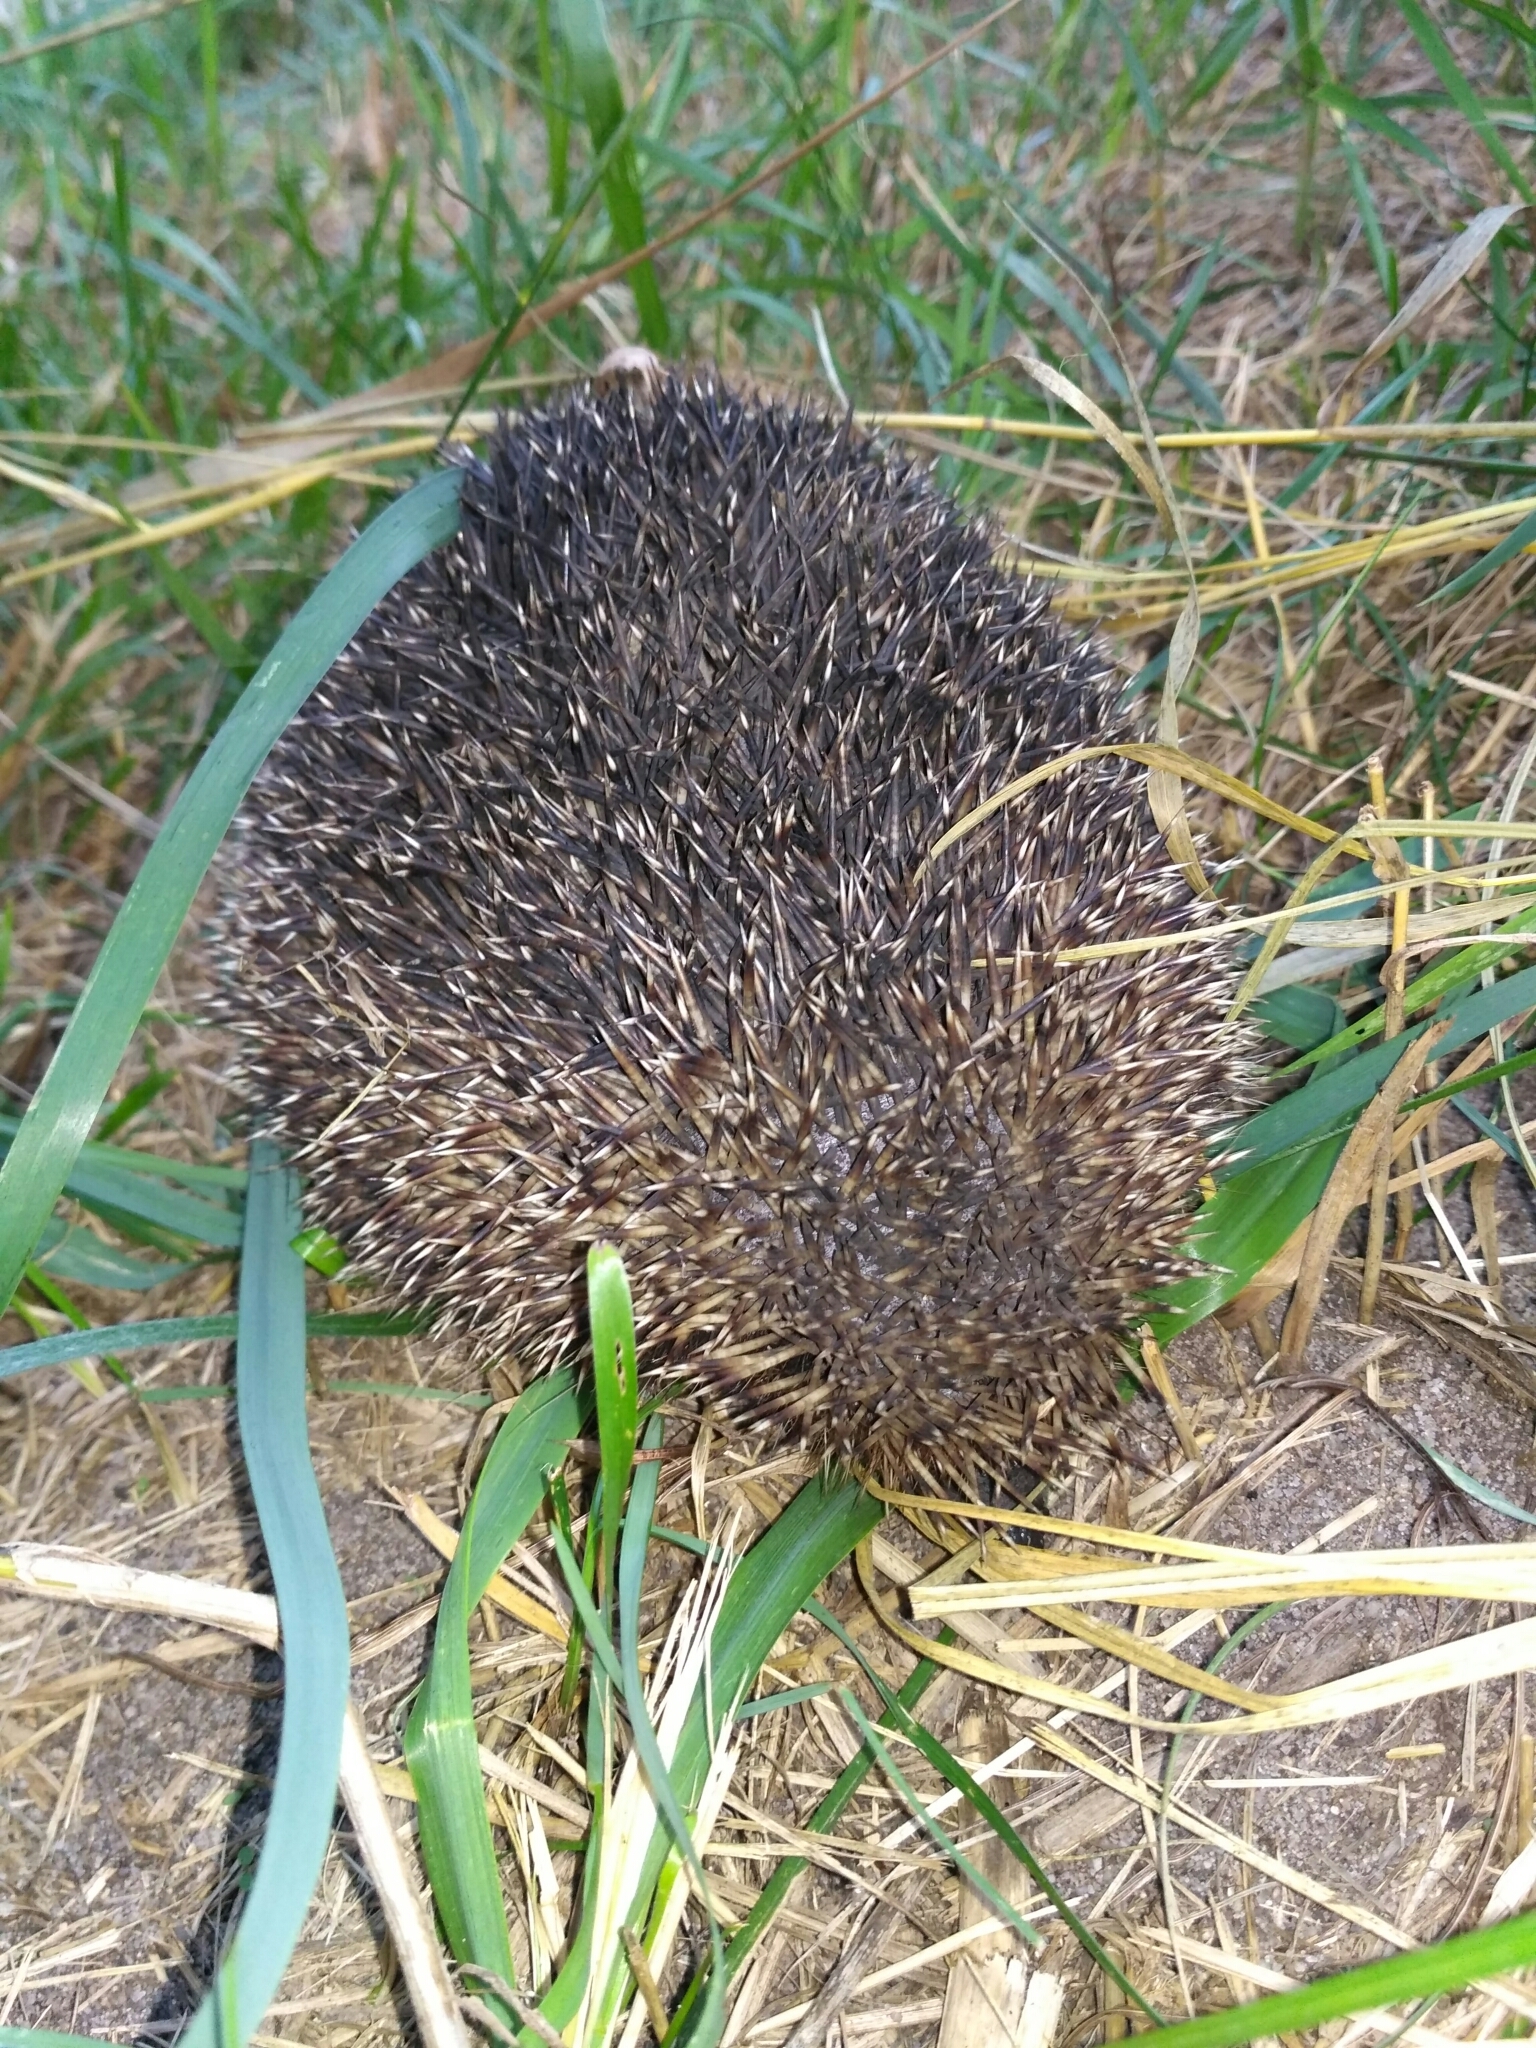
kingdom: Animalia
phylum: Chordata
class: Mammalia
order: Erinaceomorpha
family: Erinaceidae
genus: Erinaceus
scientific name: Erinaceus roumanicus
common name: Northern white-breasted hedgehog
